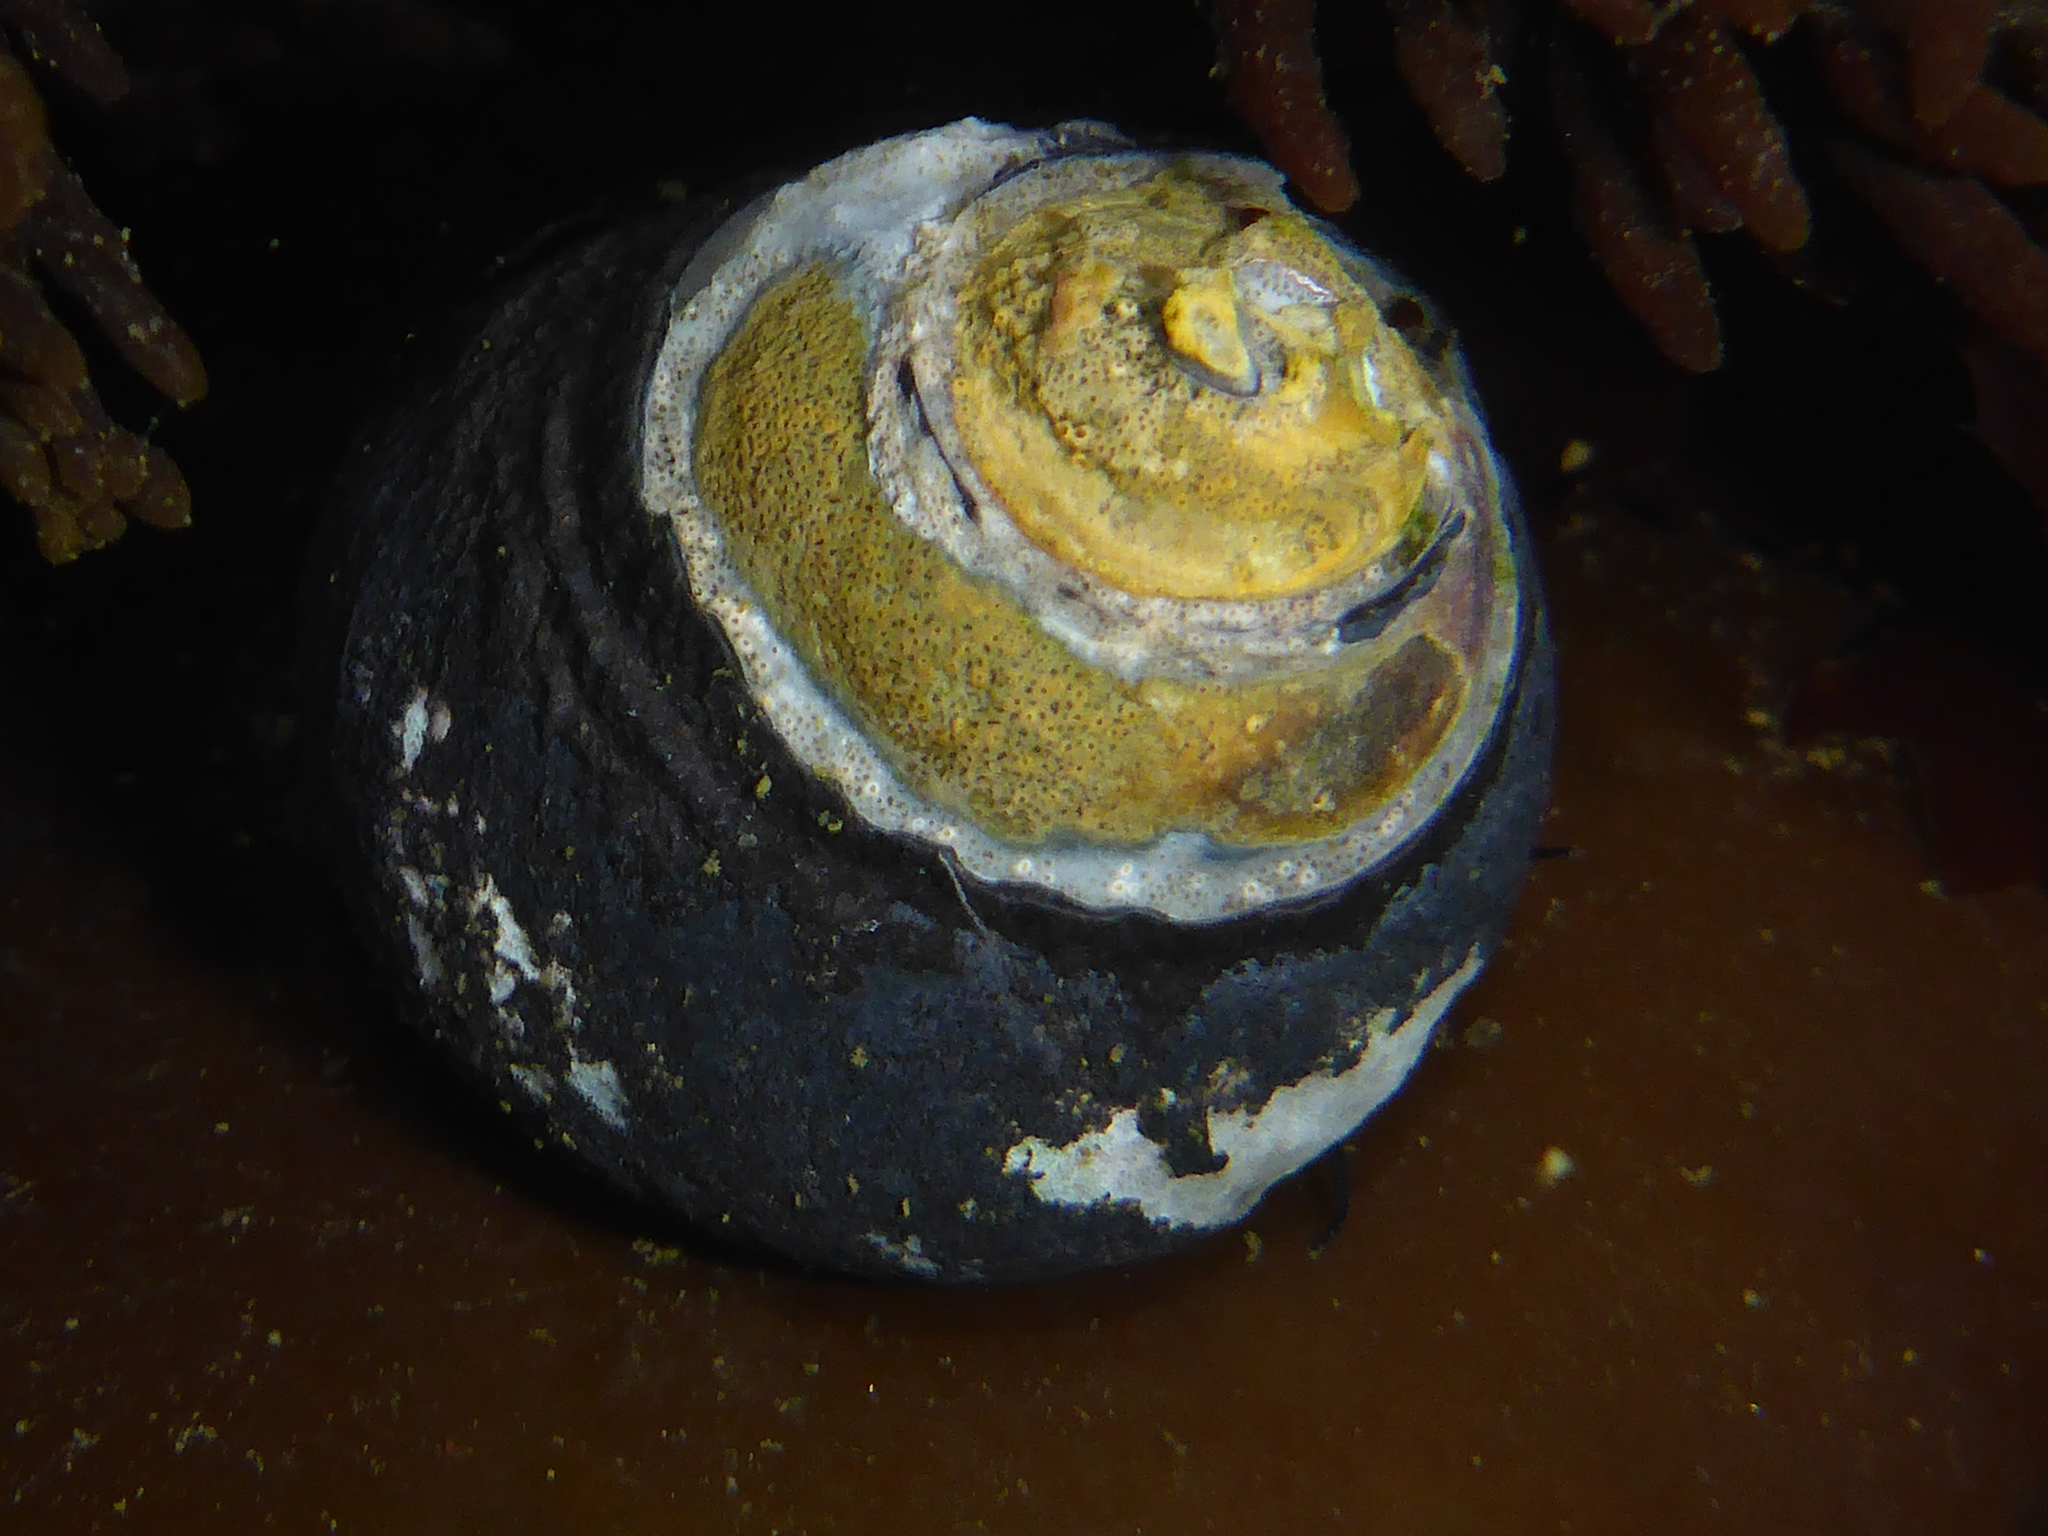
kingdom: Animalia
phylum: Mollusca
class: Gastropoda
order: Trochida
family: Tegulidae
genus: Tegula
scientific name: Tegula funebralis
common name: Black tegula
